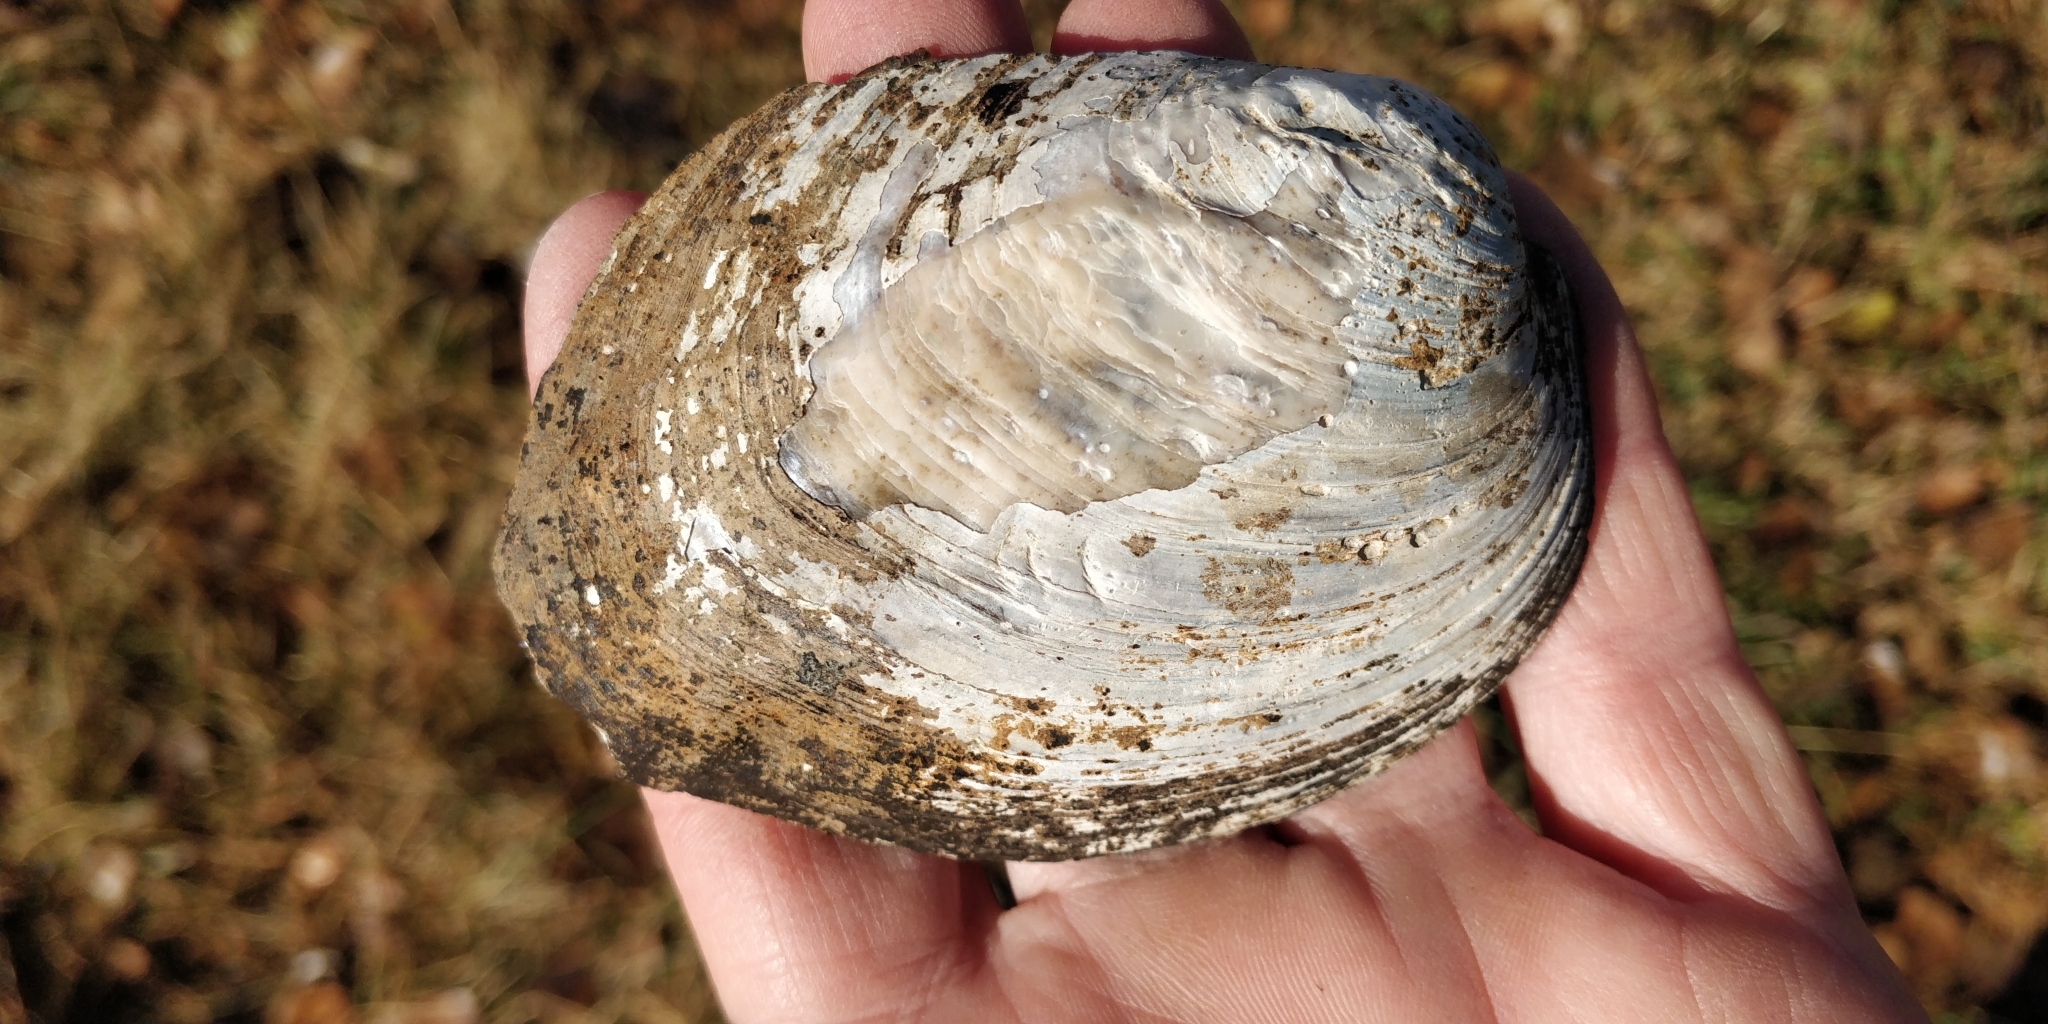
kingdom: Animalia
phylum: Mollusca
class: Bivalvia
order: Unionida
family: Unionidae
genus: Amblema
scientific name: Amblema plicata
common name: Threeridge
